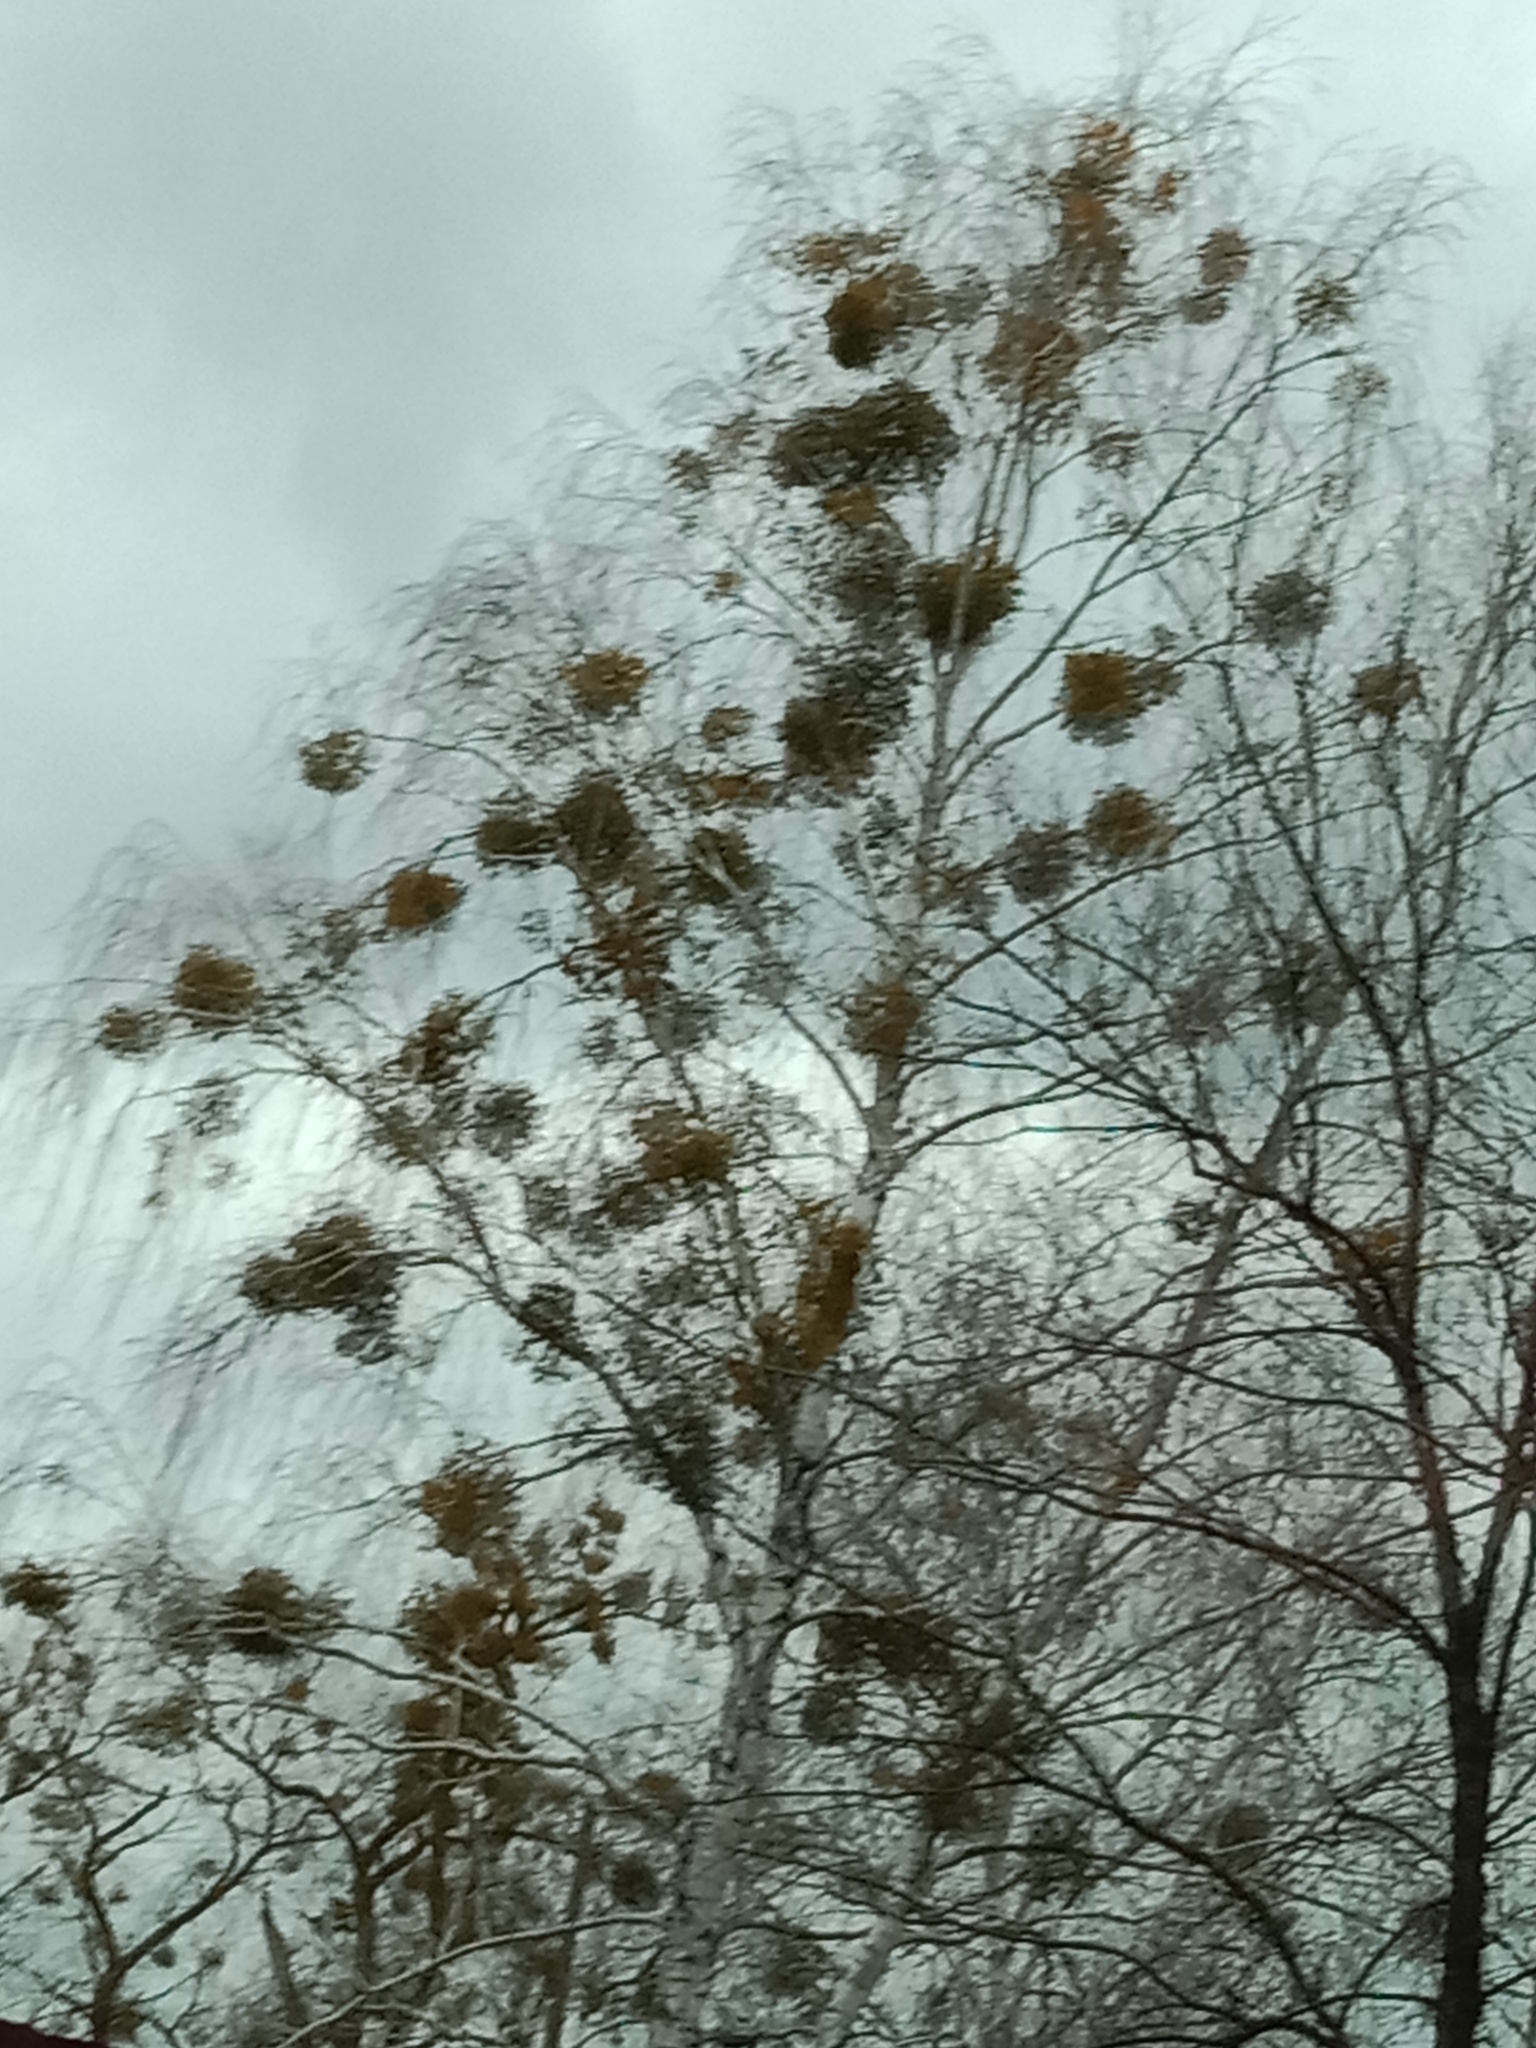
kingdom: Plantae
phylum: Tracheophyta
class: Magnoliopsida
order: Santalales
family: Viscaceae
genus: Viscum
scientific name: Viscum album
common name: Mistletoe
